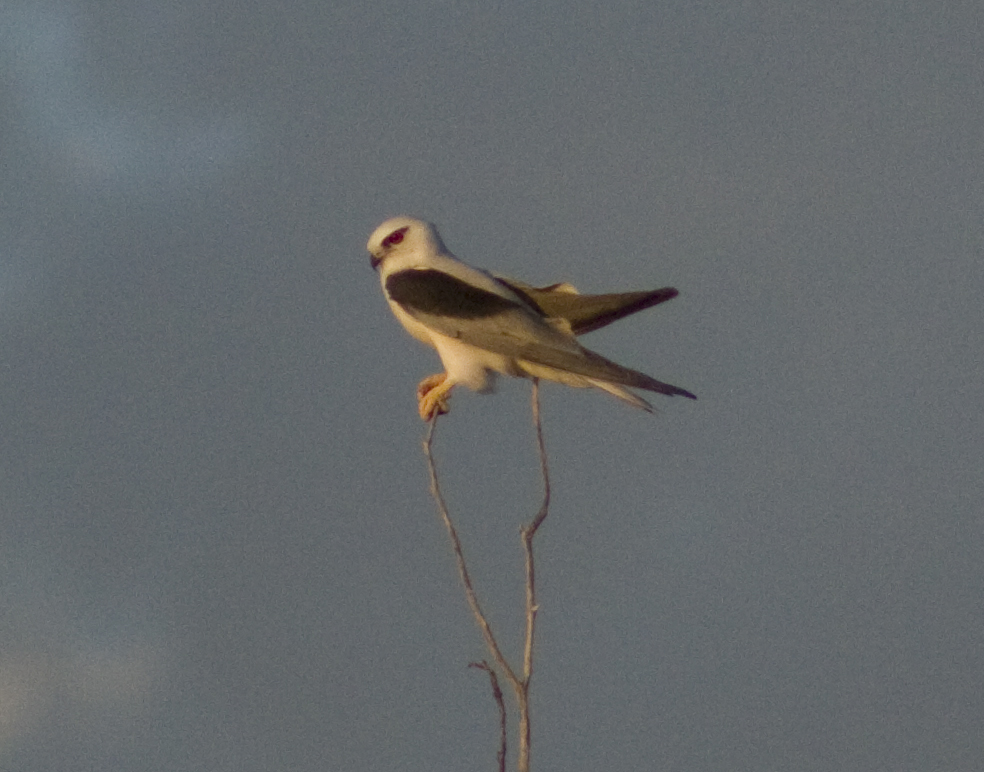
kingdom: Animalia
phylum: Chordata
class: Aves
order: Accipitriformes
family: Accipitridae
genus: Elanus
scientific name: Elanus axillaris
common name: Black-shouldered kite
